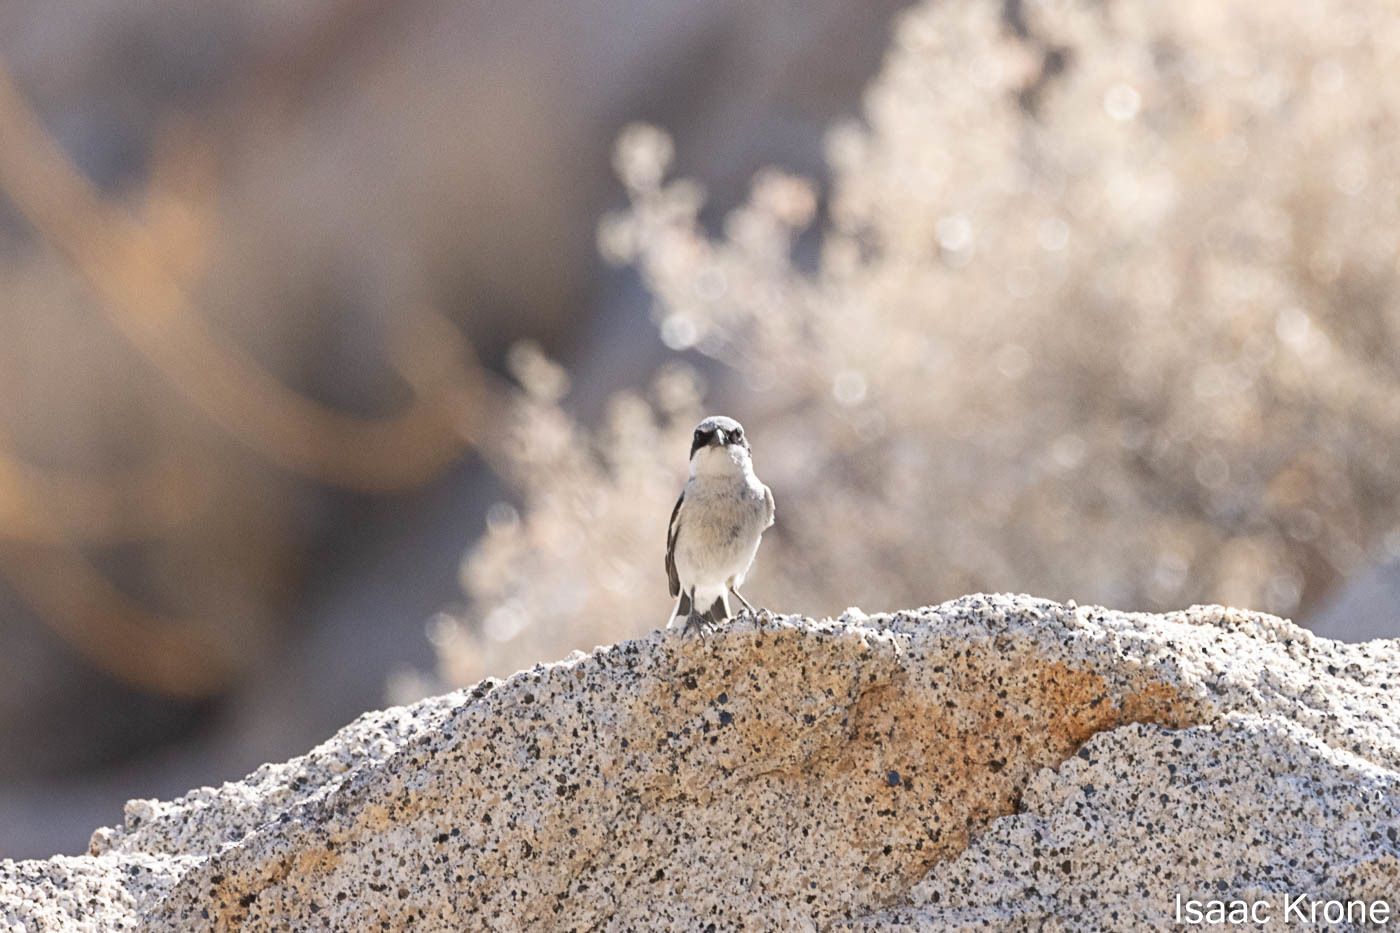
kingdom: Animalia
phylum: Chordata
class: Aves
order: Passeriformes
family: Laniidae
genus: Lanius
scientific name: Lanius ludovicianus
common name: Loggerhead shrike
